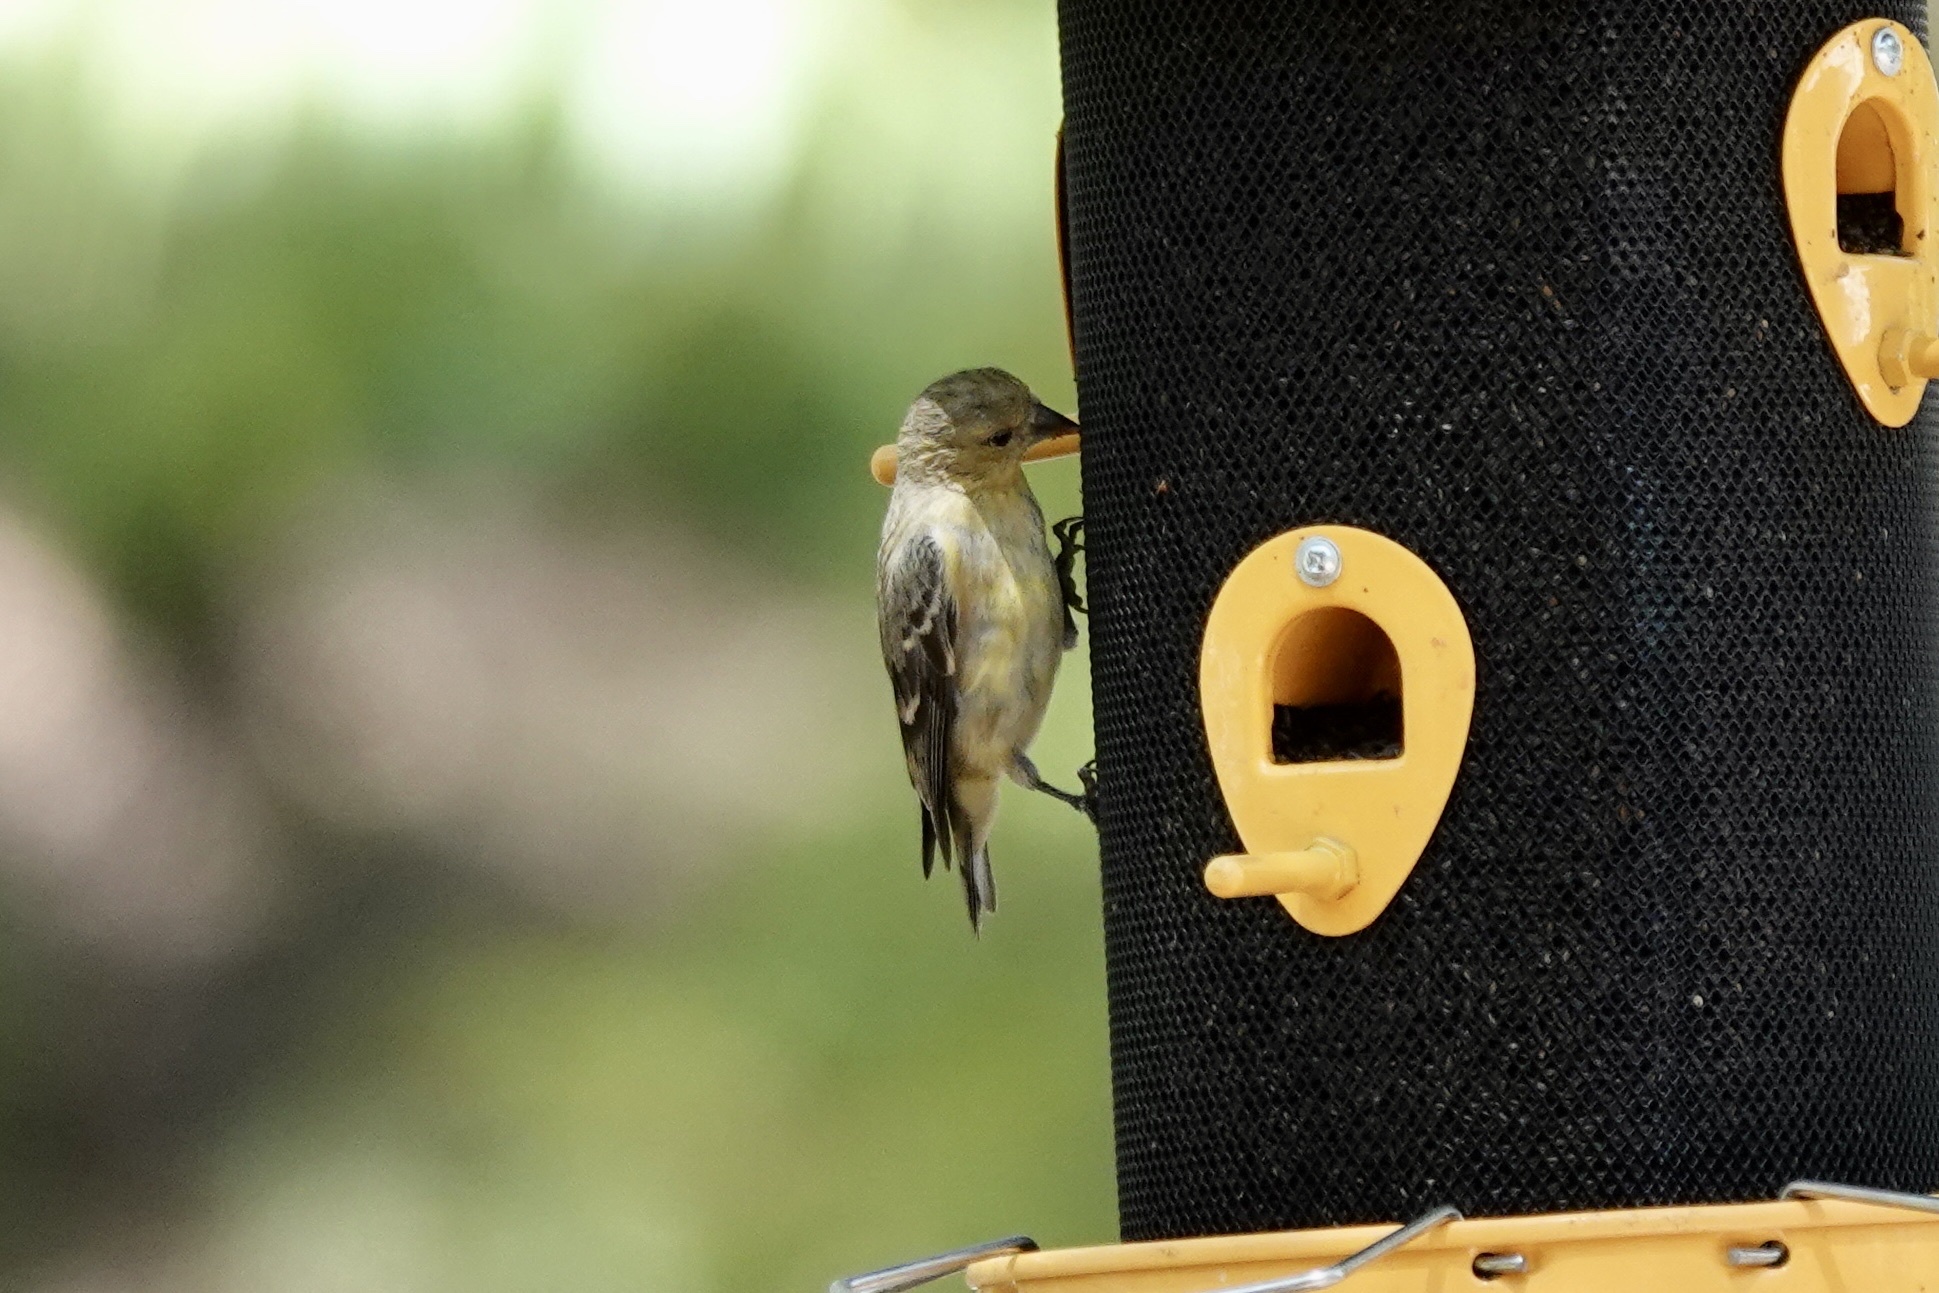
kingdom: Animalia
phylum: Chordata
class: Aves
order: Passeriformes
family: Fringillidae
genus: Spinus
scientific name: Spinus psaltria
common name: Lesser goldfinch
